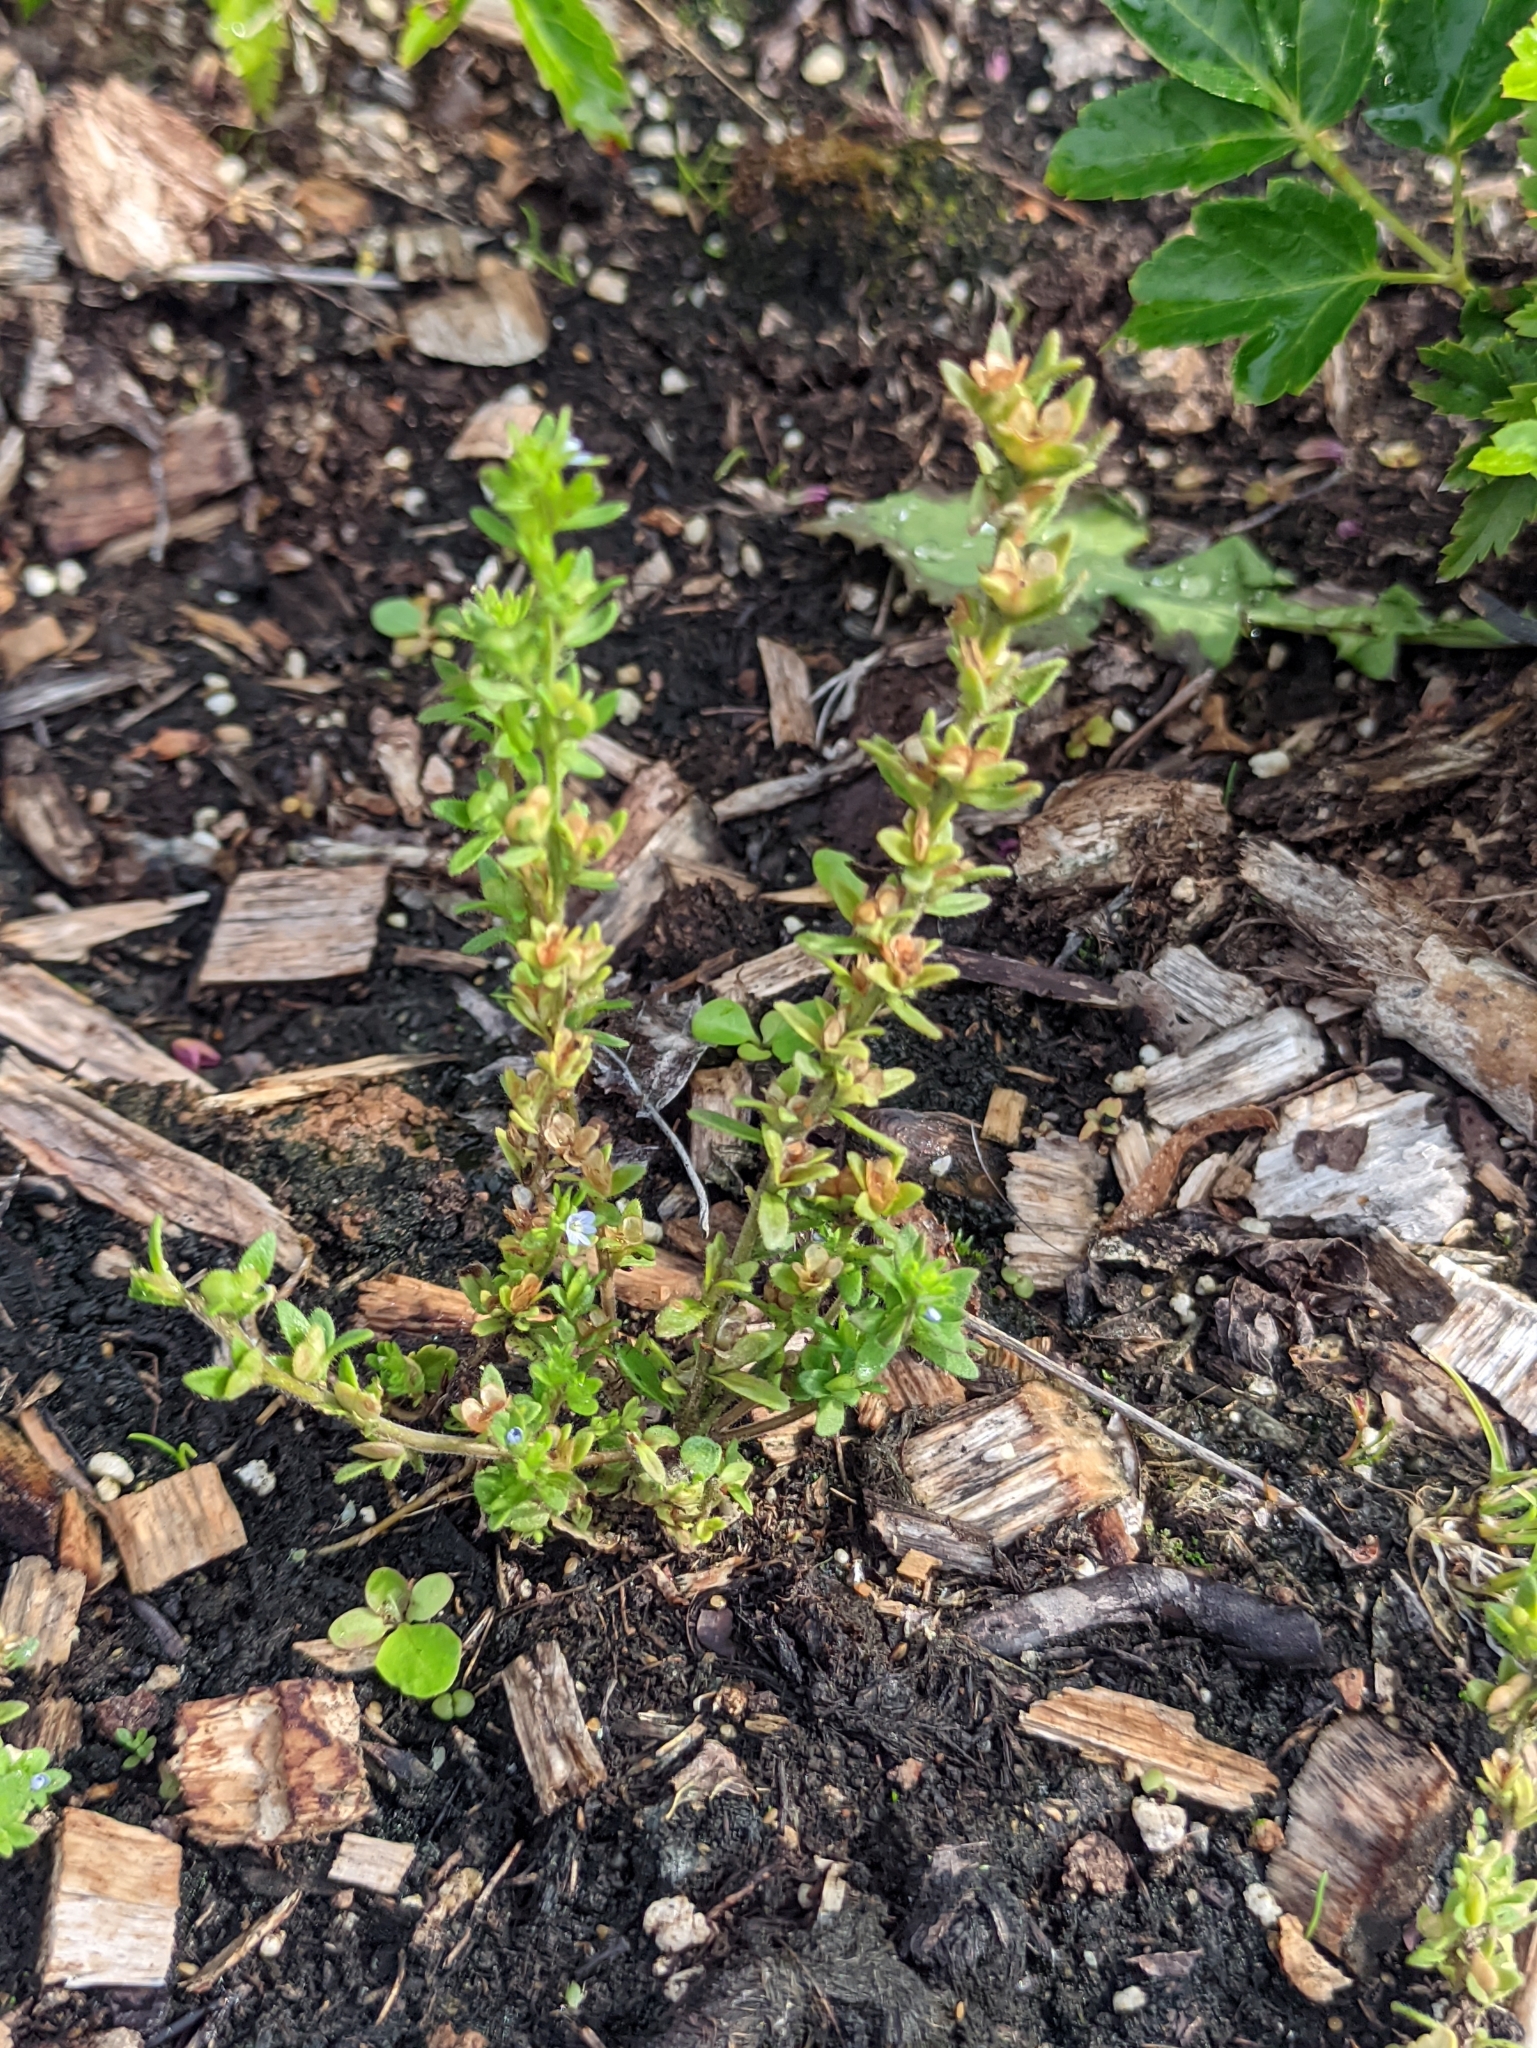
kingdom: Plantae
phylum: Tracheophyta
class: Magnoliopsida
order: Lamiales
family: Plantaginaceae
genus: Veronica
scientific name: Veronica arvensis
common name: Corn speedwell
